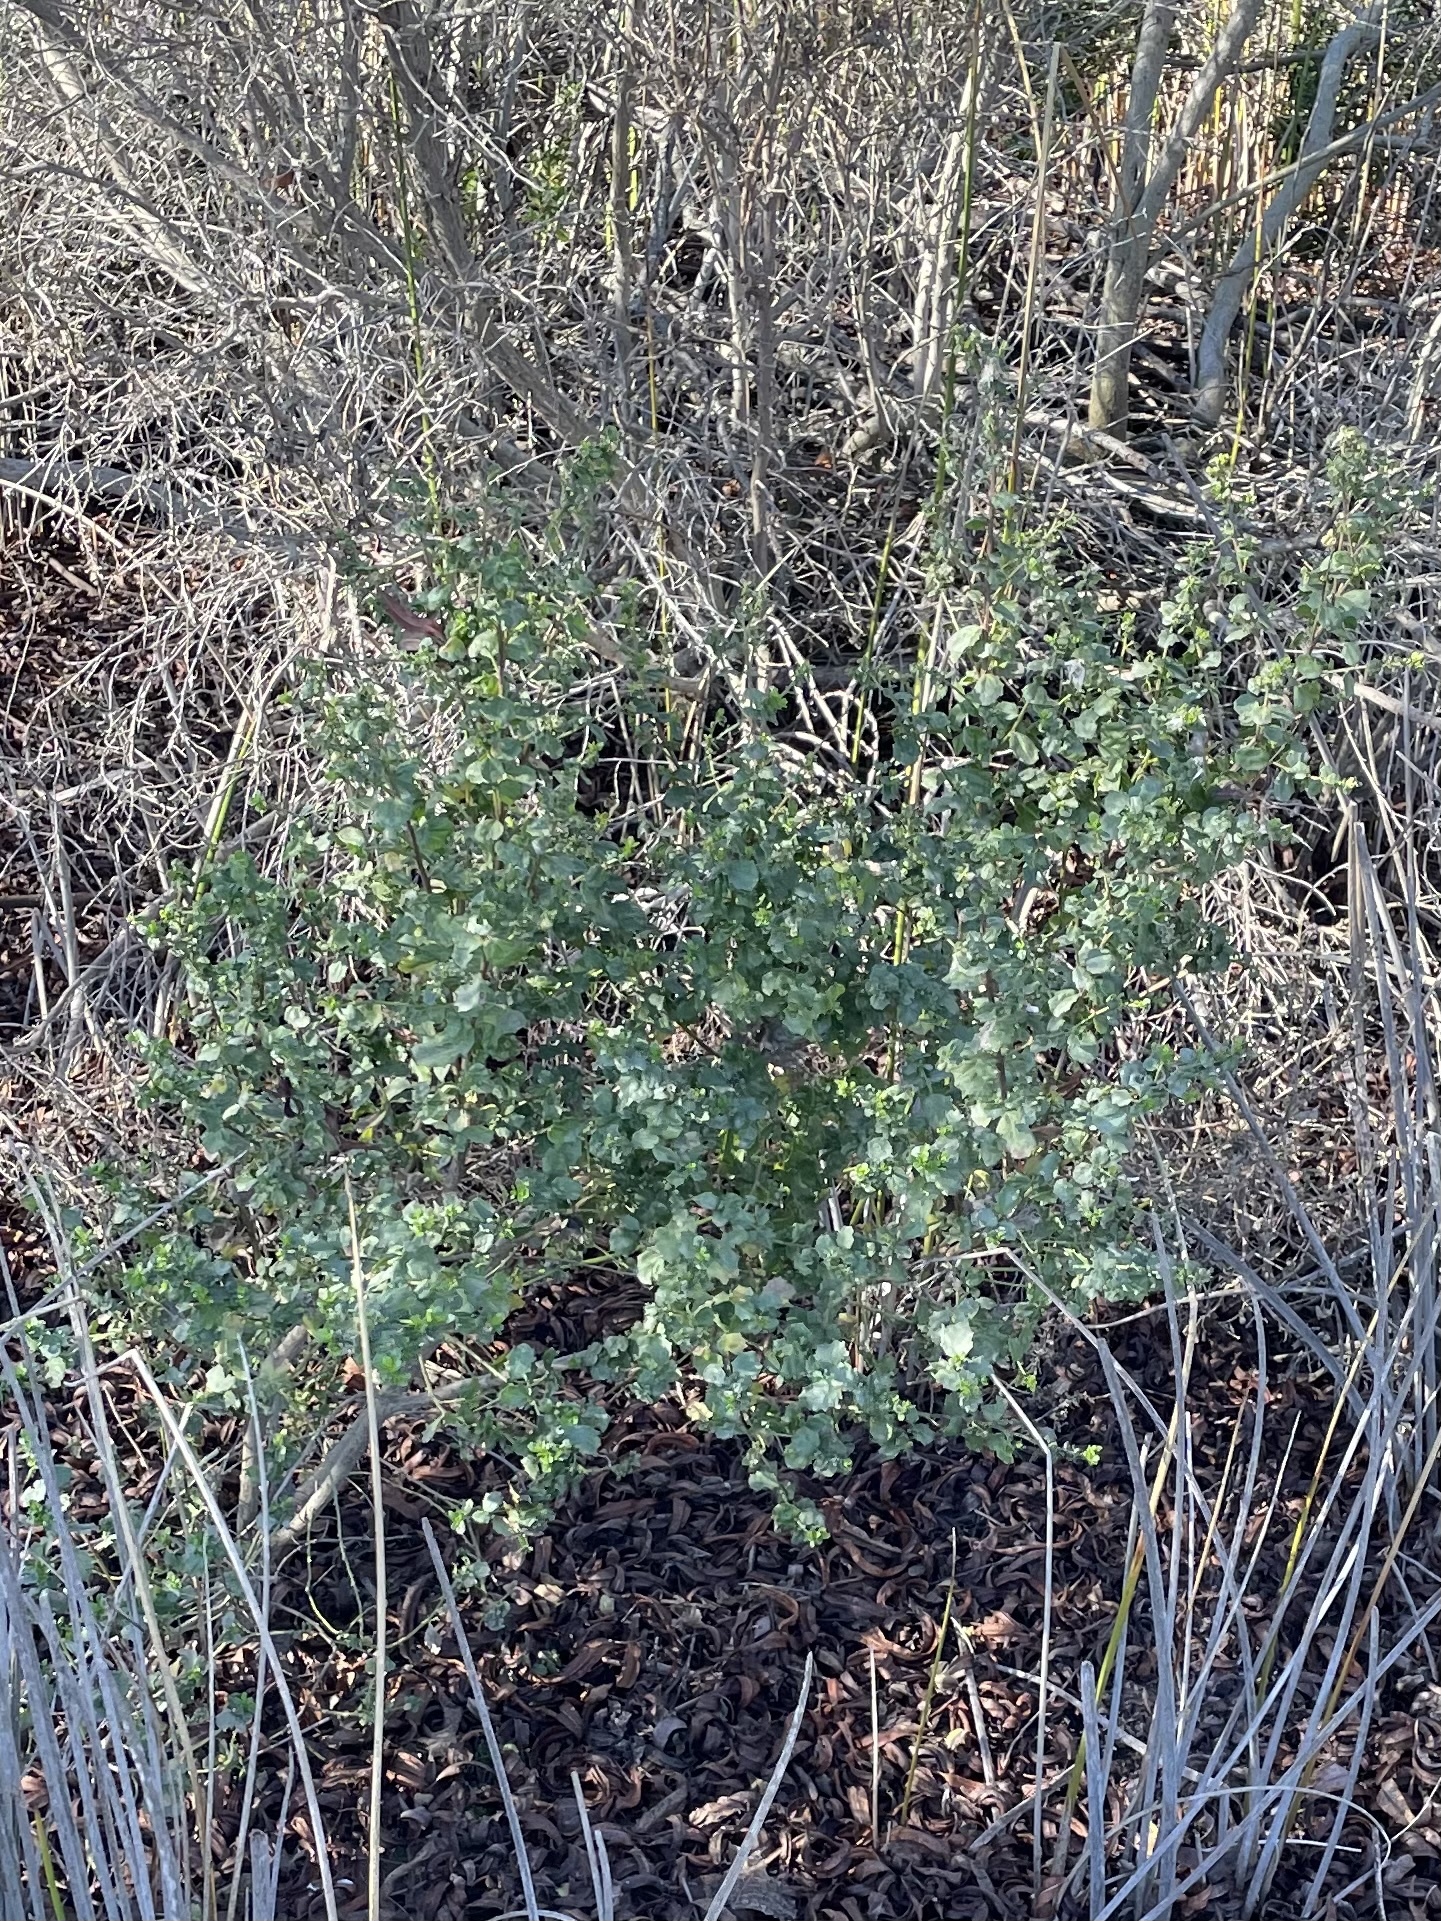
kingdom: Plantae
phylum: Tracheophyta
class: Magnoliopsida
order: Asterales
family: Asteraceae
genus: Baccharis
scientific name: Baccharis pilularis
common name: Coyotebrush
